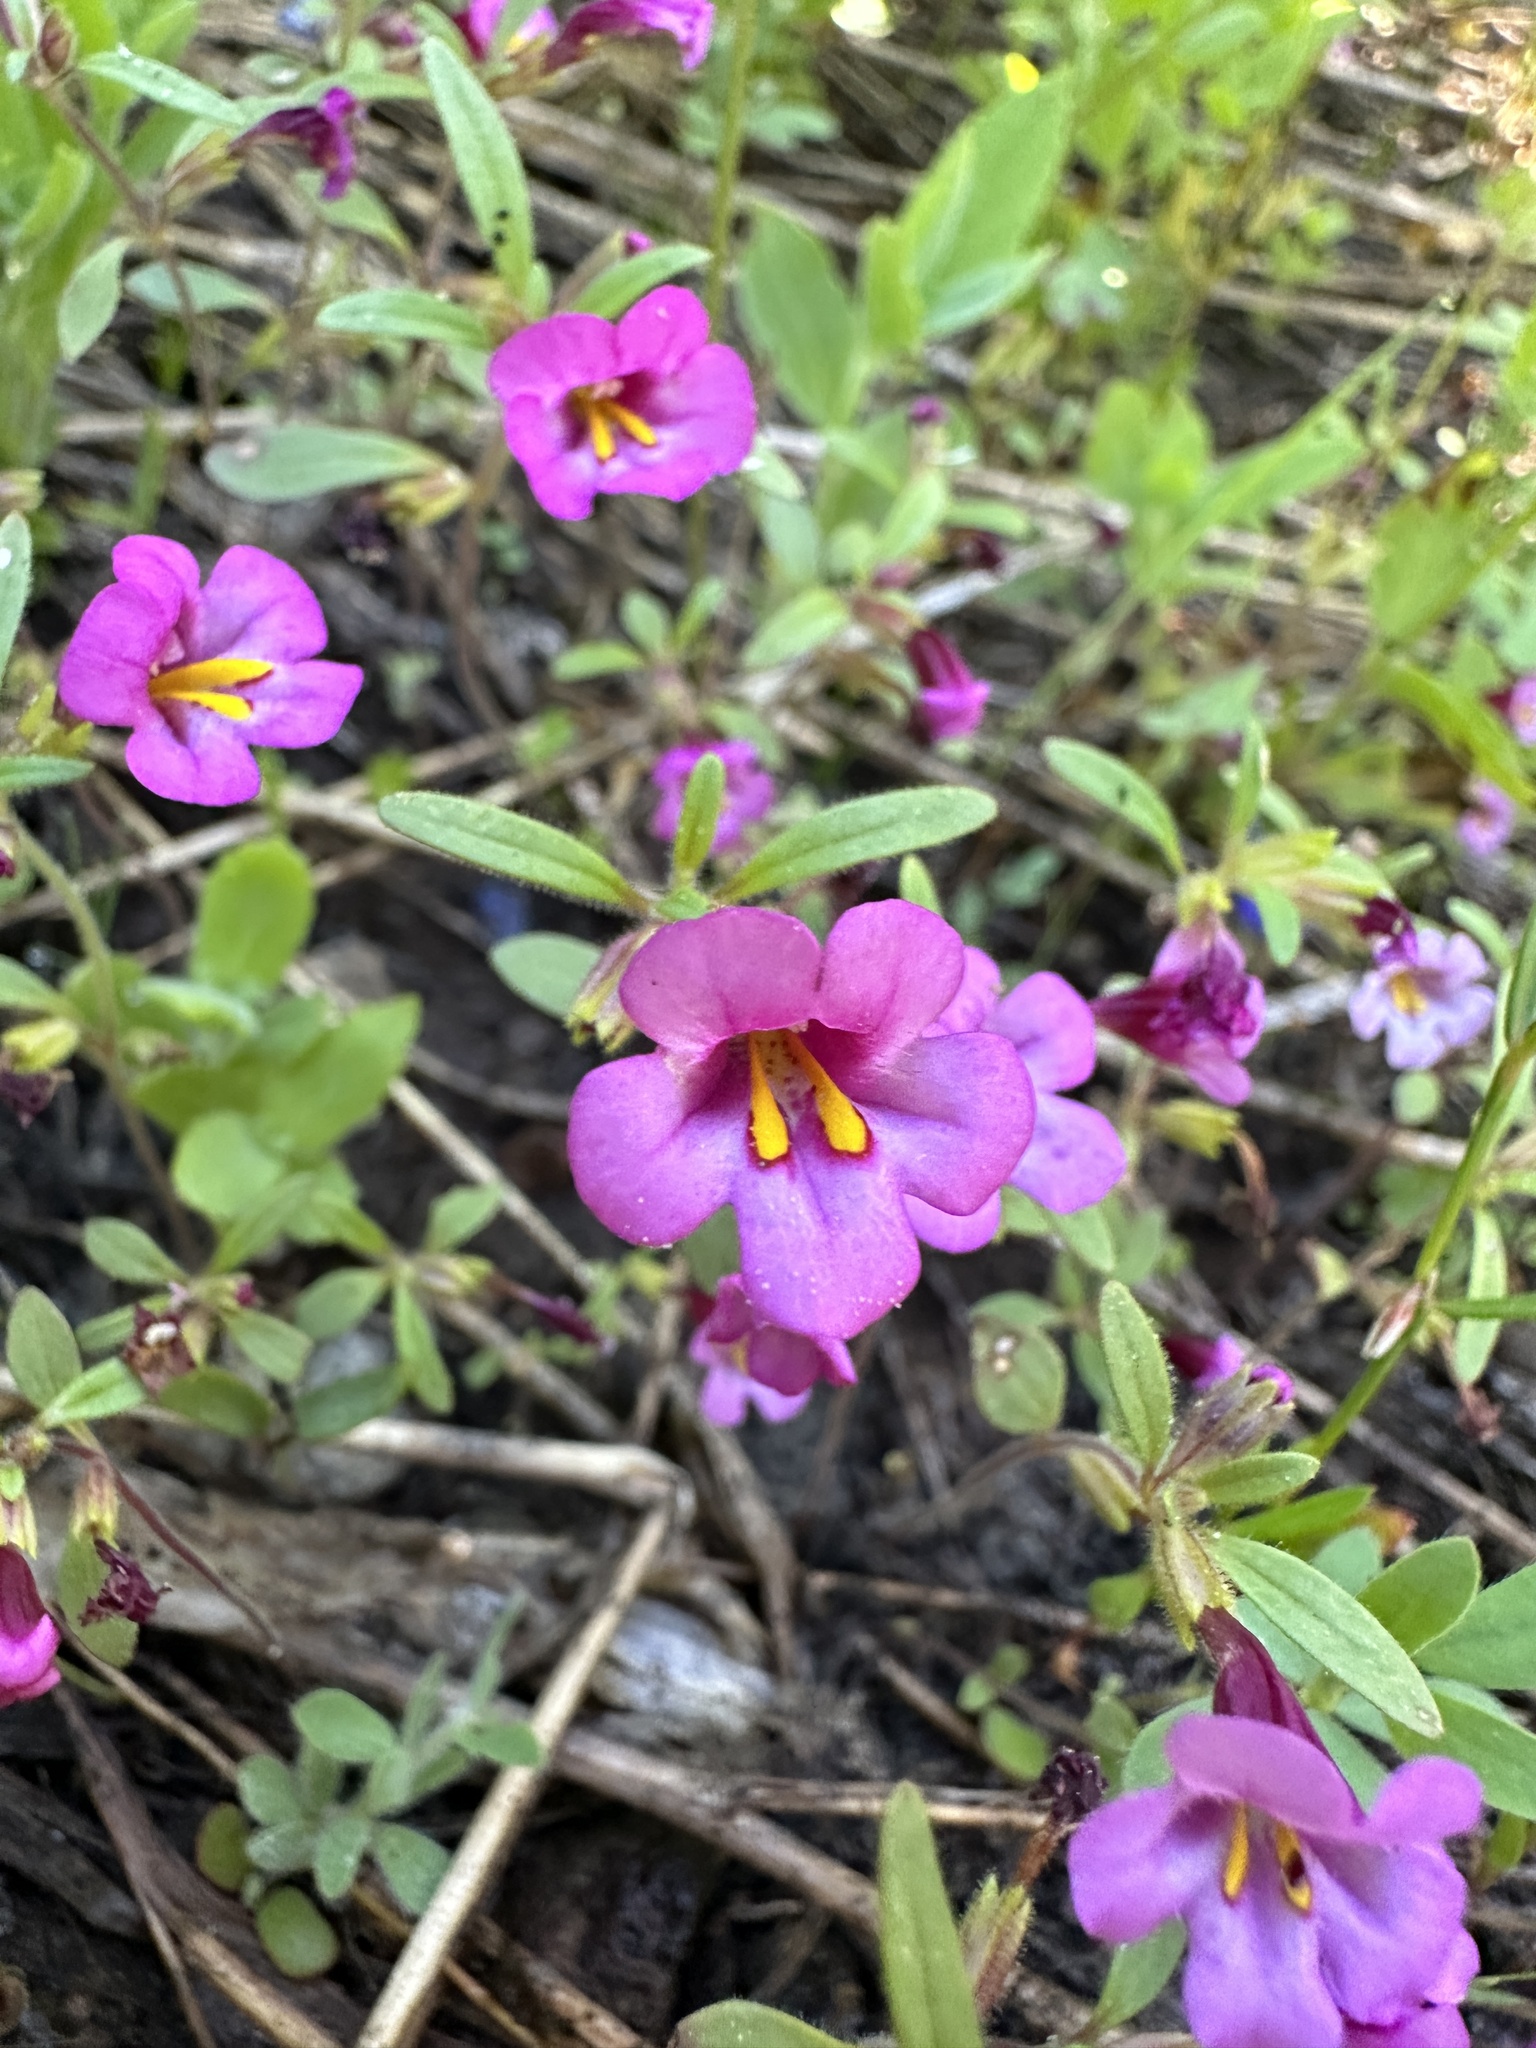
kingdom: Plantae
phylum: Tracheophyta
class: Magnoliopsida
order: Lamiales
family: Phrymaceae
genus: Diplacus
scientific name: Diplacus torreyi
